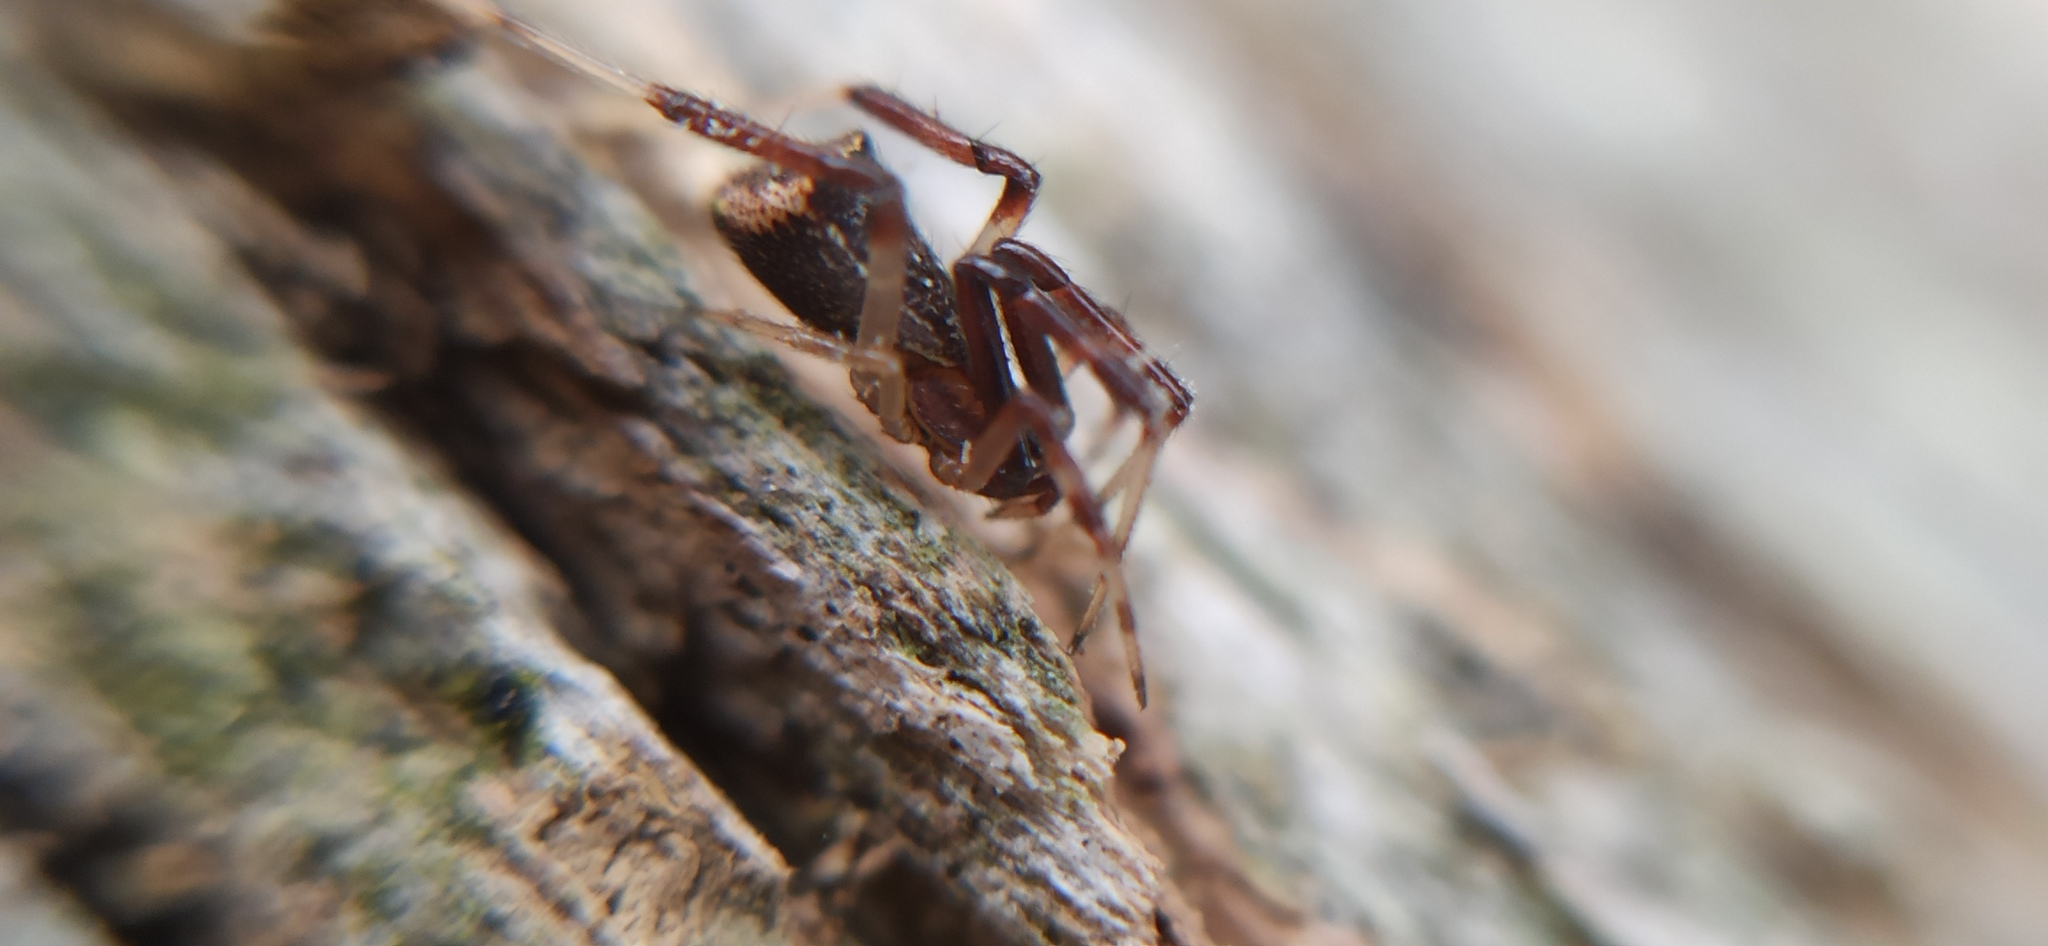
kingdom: Animalia
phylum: Arthropoda
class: Arachnida
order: Araneae
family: Theridiidae
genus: Episinus
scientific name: Episinus truncatus
